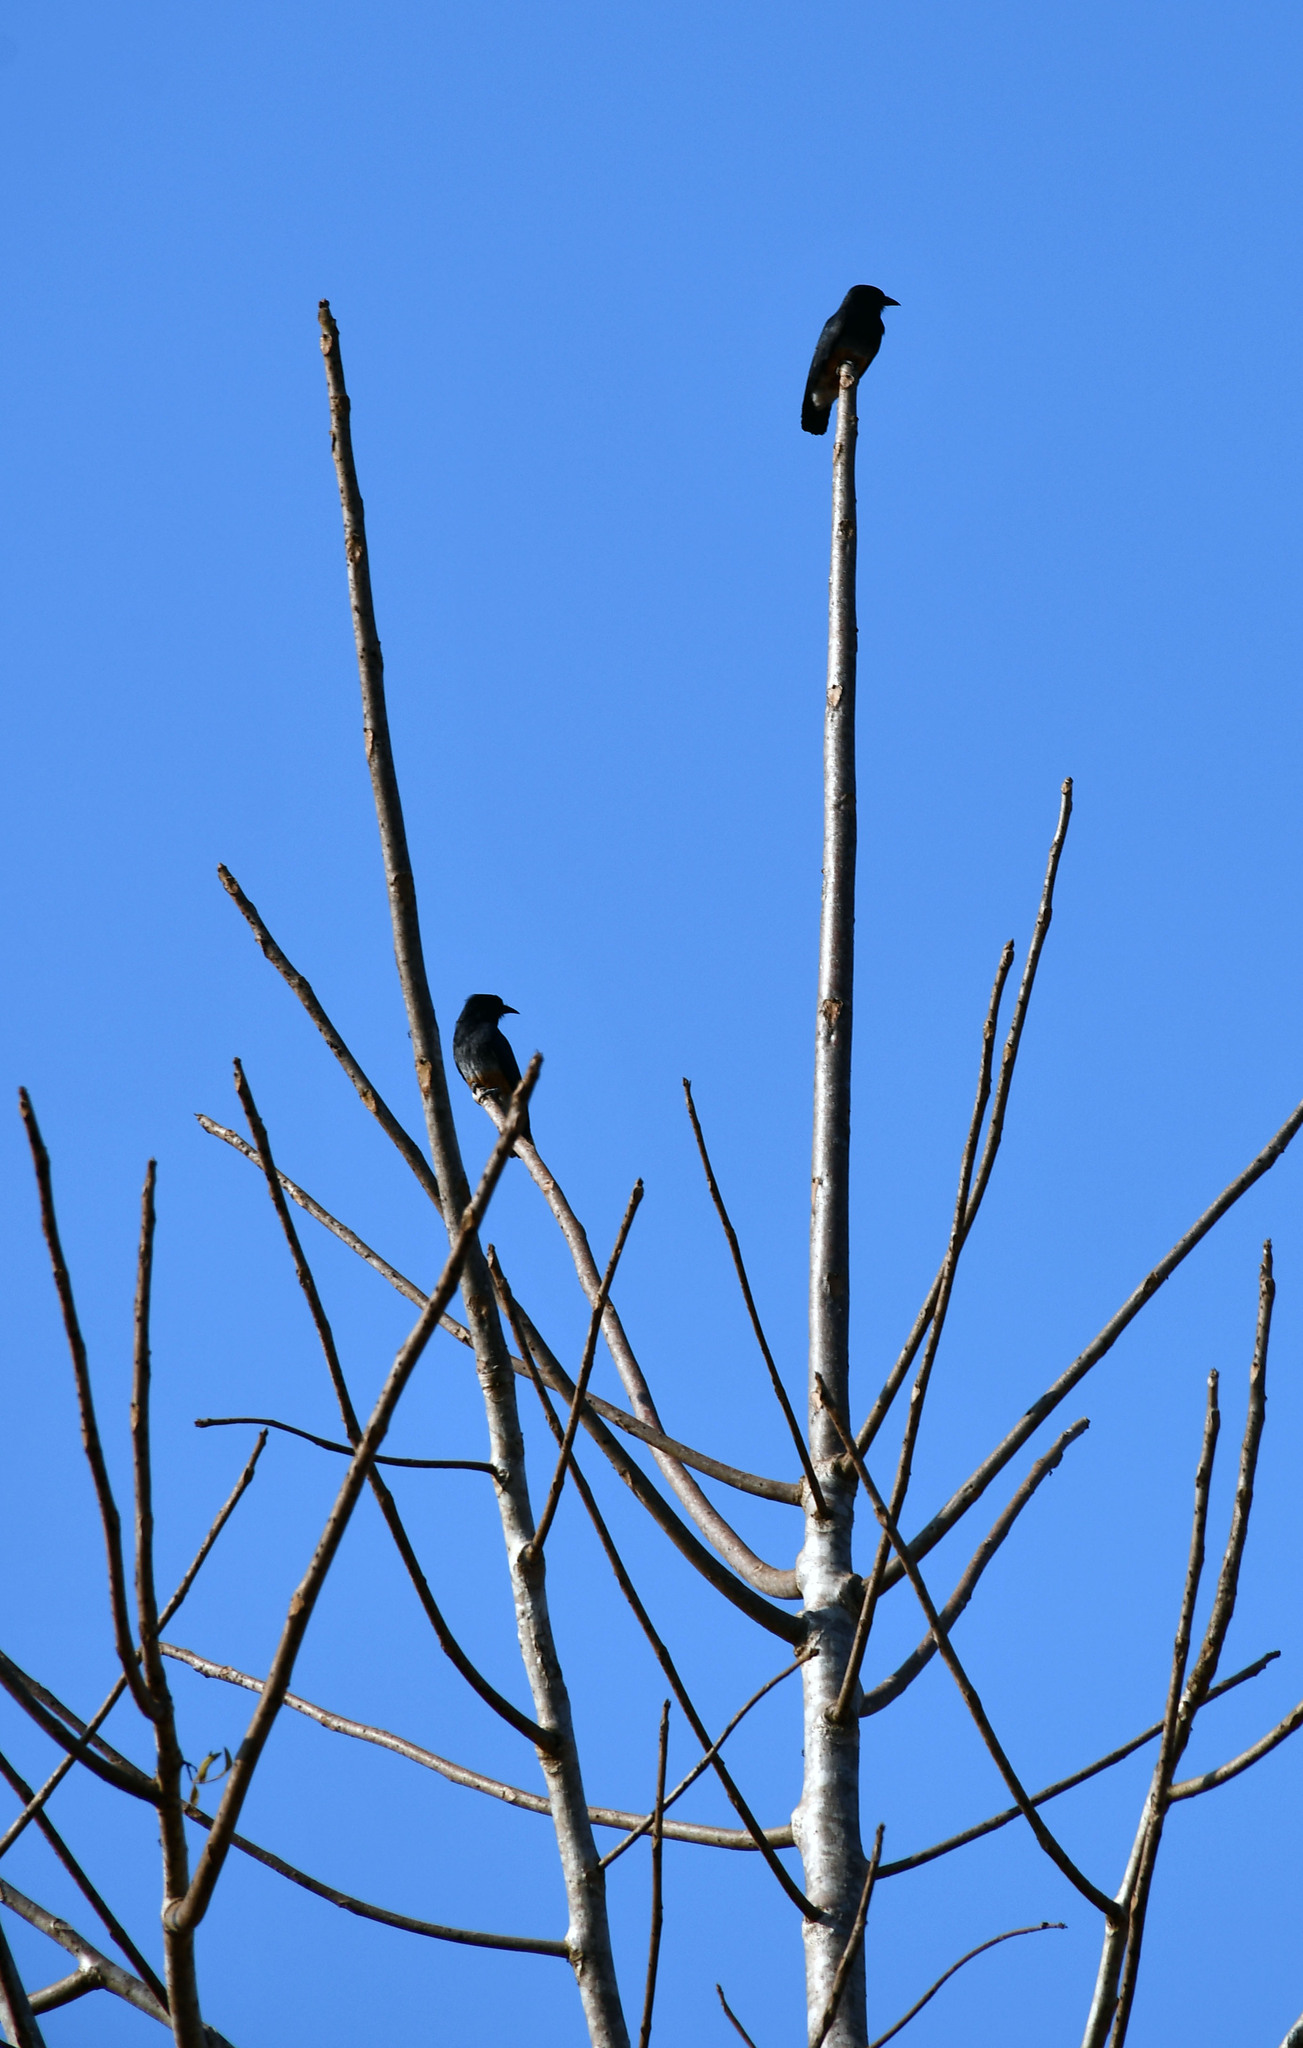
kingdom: Animalia
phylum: Chordata
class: Aves
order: Piciformes
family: Bucconidae
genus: Chelidoptera
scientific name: Chelidoptera tenebrosa
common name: Swallow-winged puffbird
